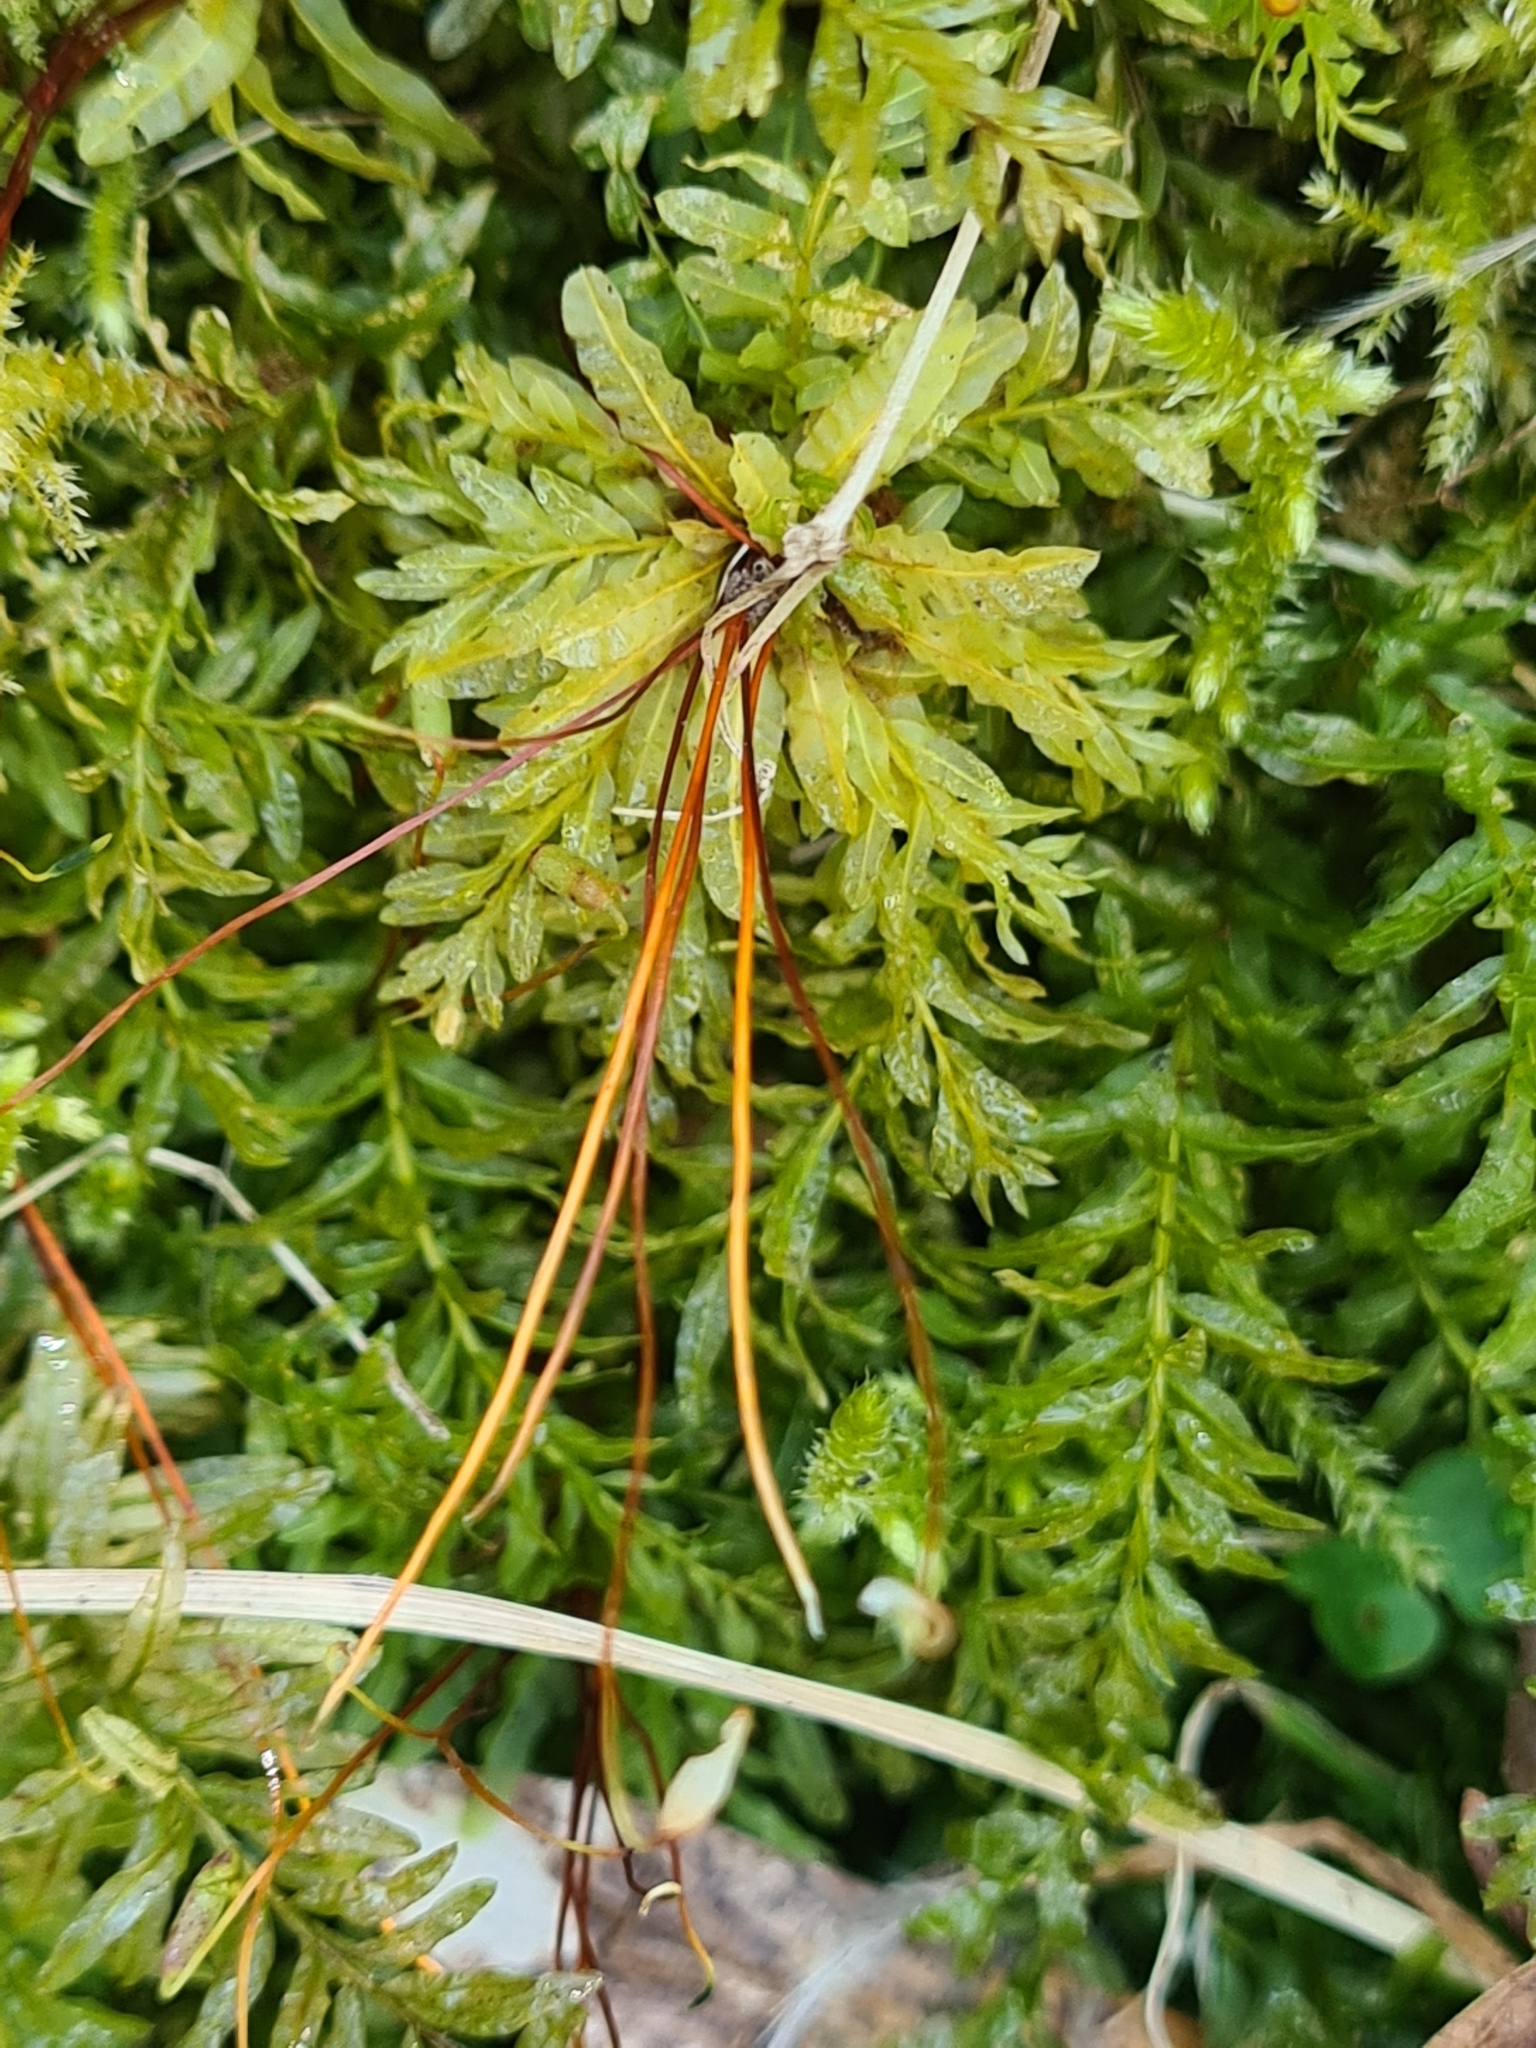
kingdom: Plantae
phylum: Bryophyta
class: Bryopsida
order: Bryales
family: Mniaceae
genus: Plagiomnium
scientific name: Plagiomnium undulatum
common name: Hart's-tongue thyme-moss
